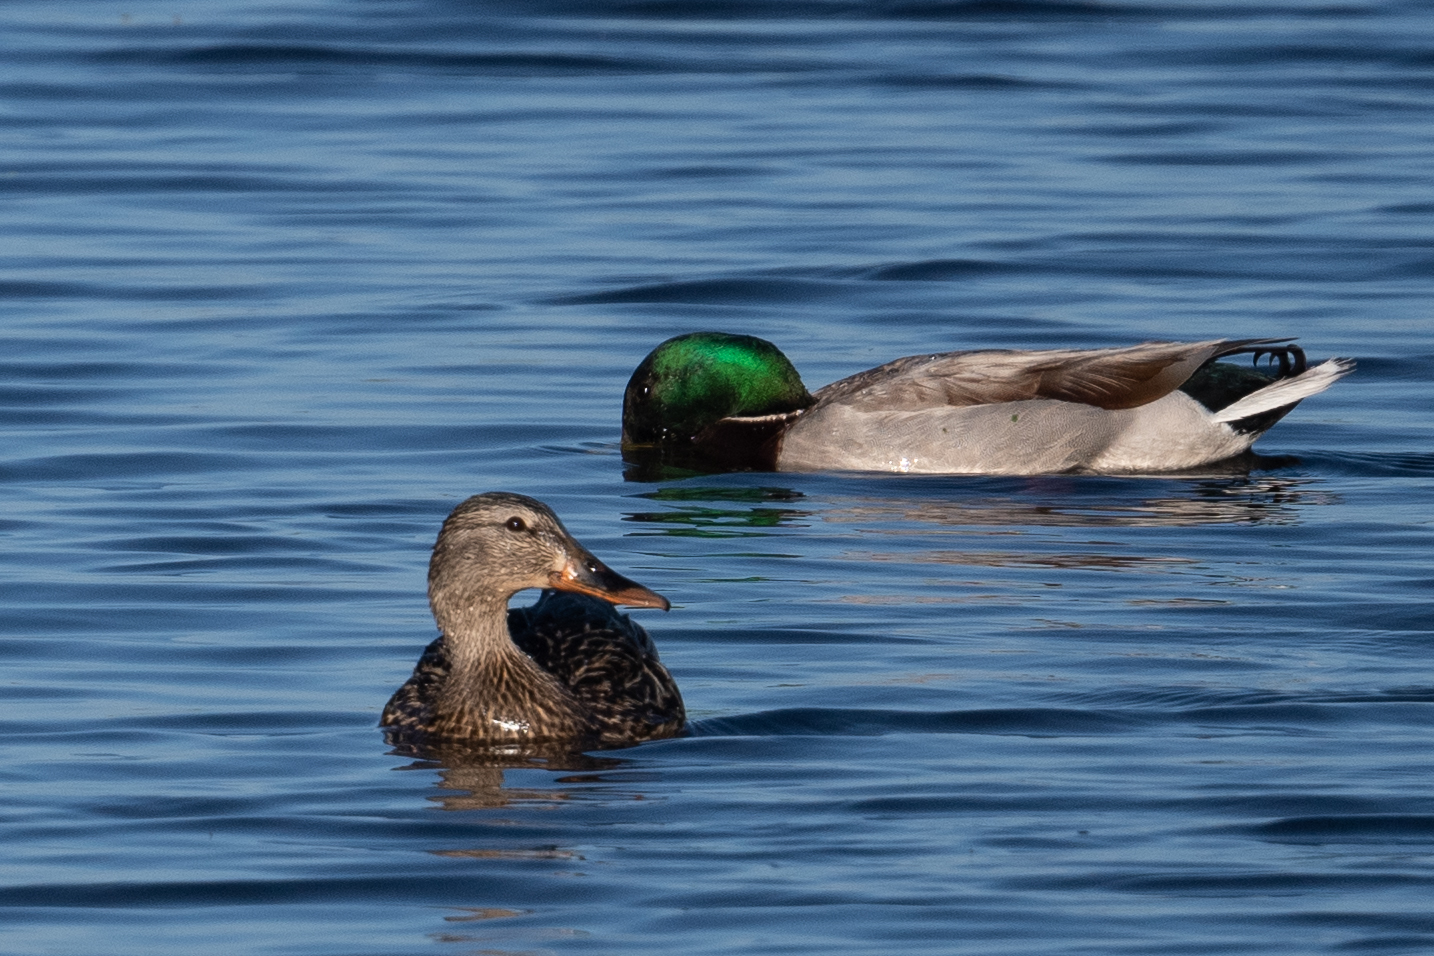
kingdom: Animalia
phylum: Chordata
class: Aves
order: Anseriformes
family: Anatidae
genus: Anas
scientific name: Anas platyrhynchos
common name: Mallard
